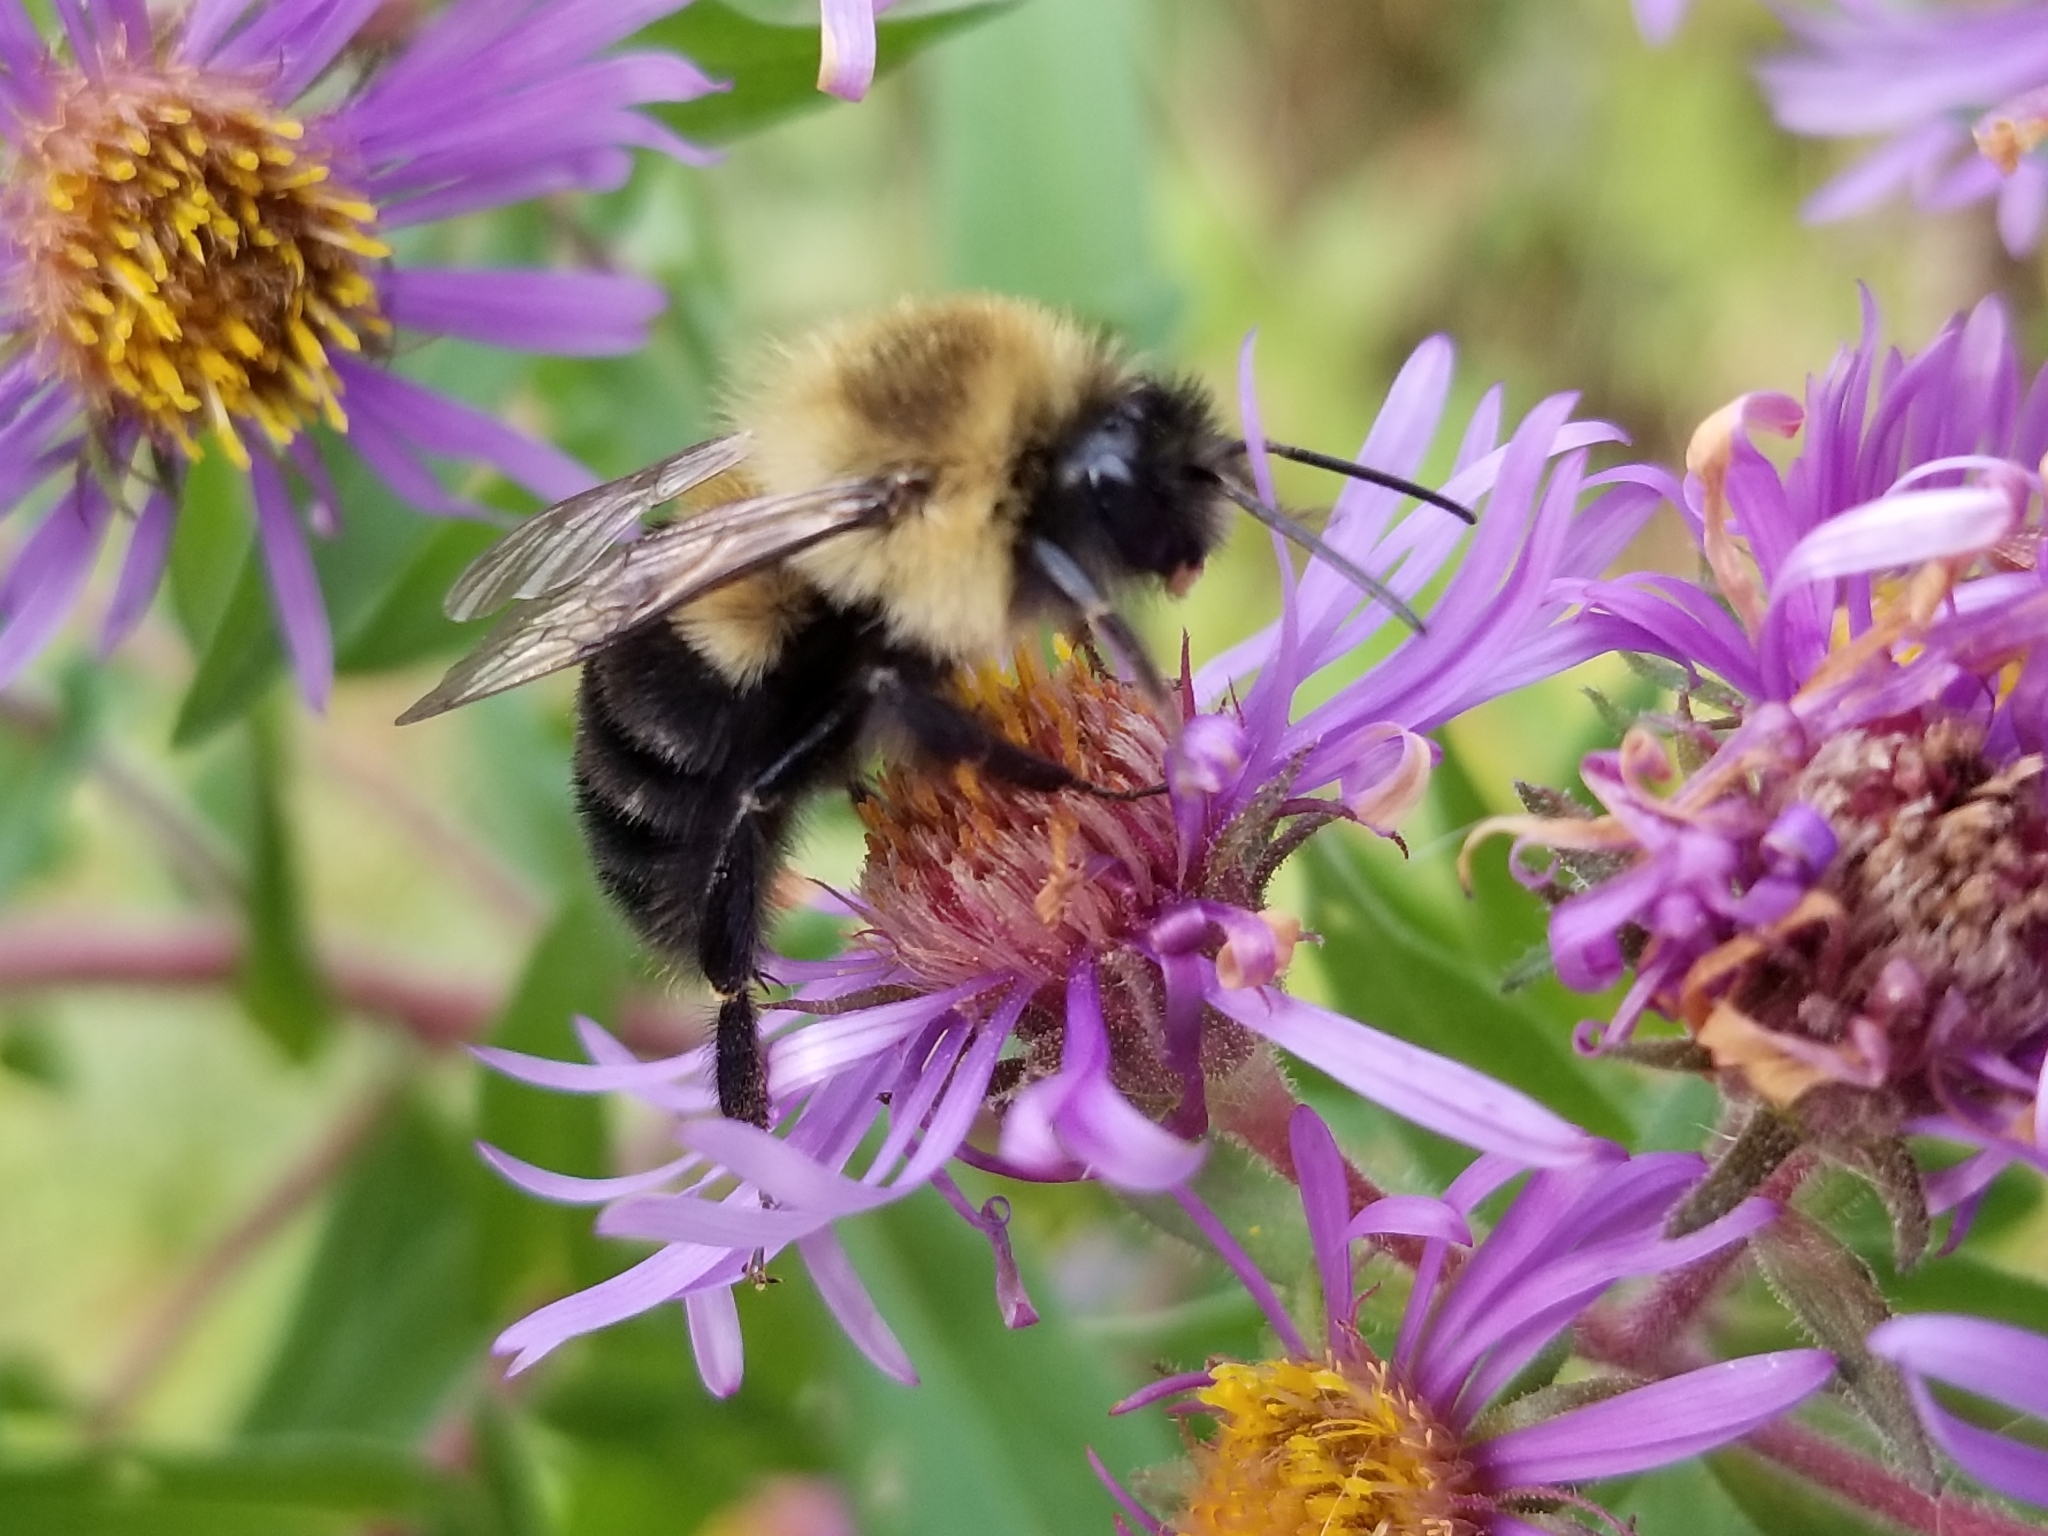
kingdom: Animalia
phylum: Arthropoda
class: Insecta
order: Hymenoptera
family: Apidae
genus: Bombus
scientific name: Bombus impatiens
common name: Common eastern bumble bee
